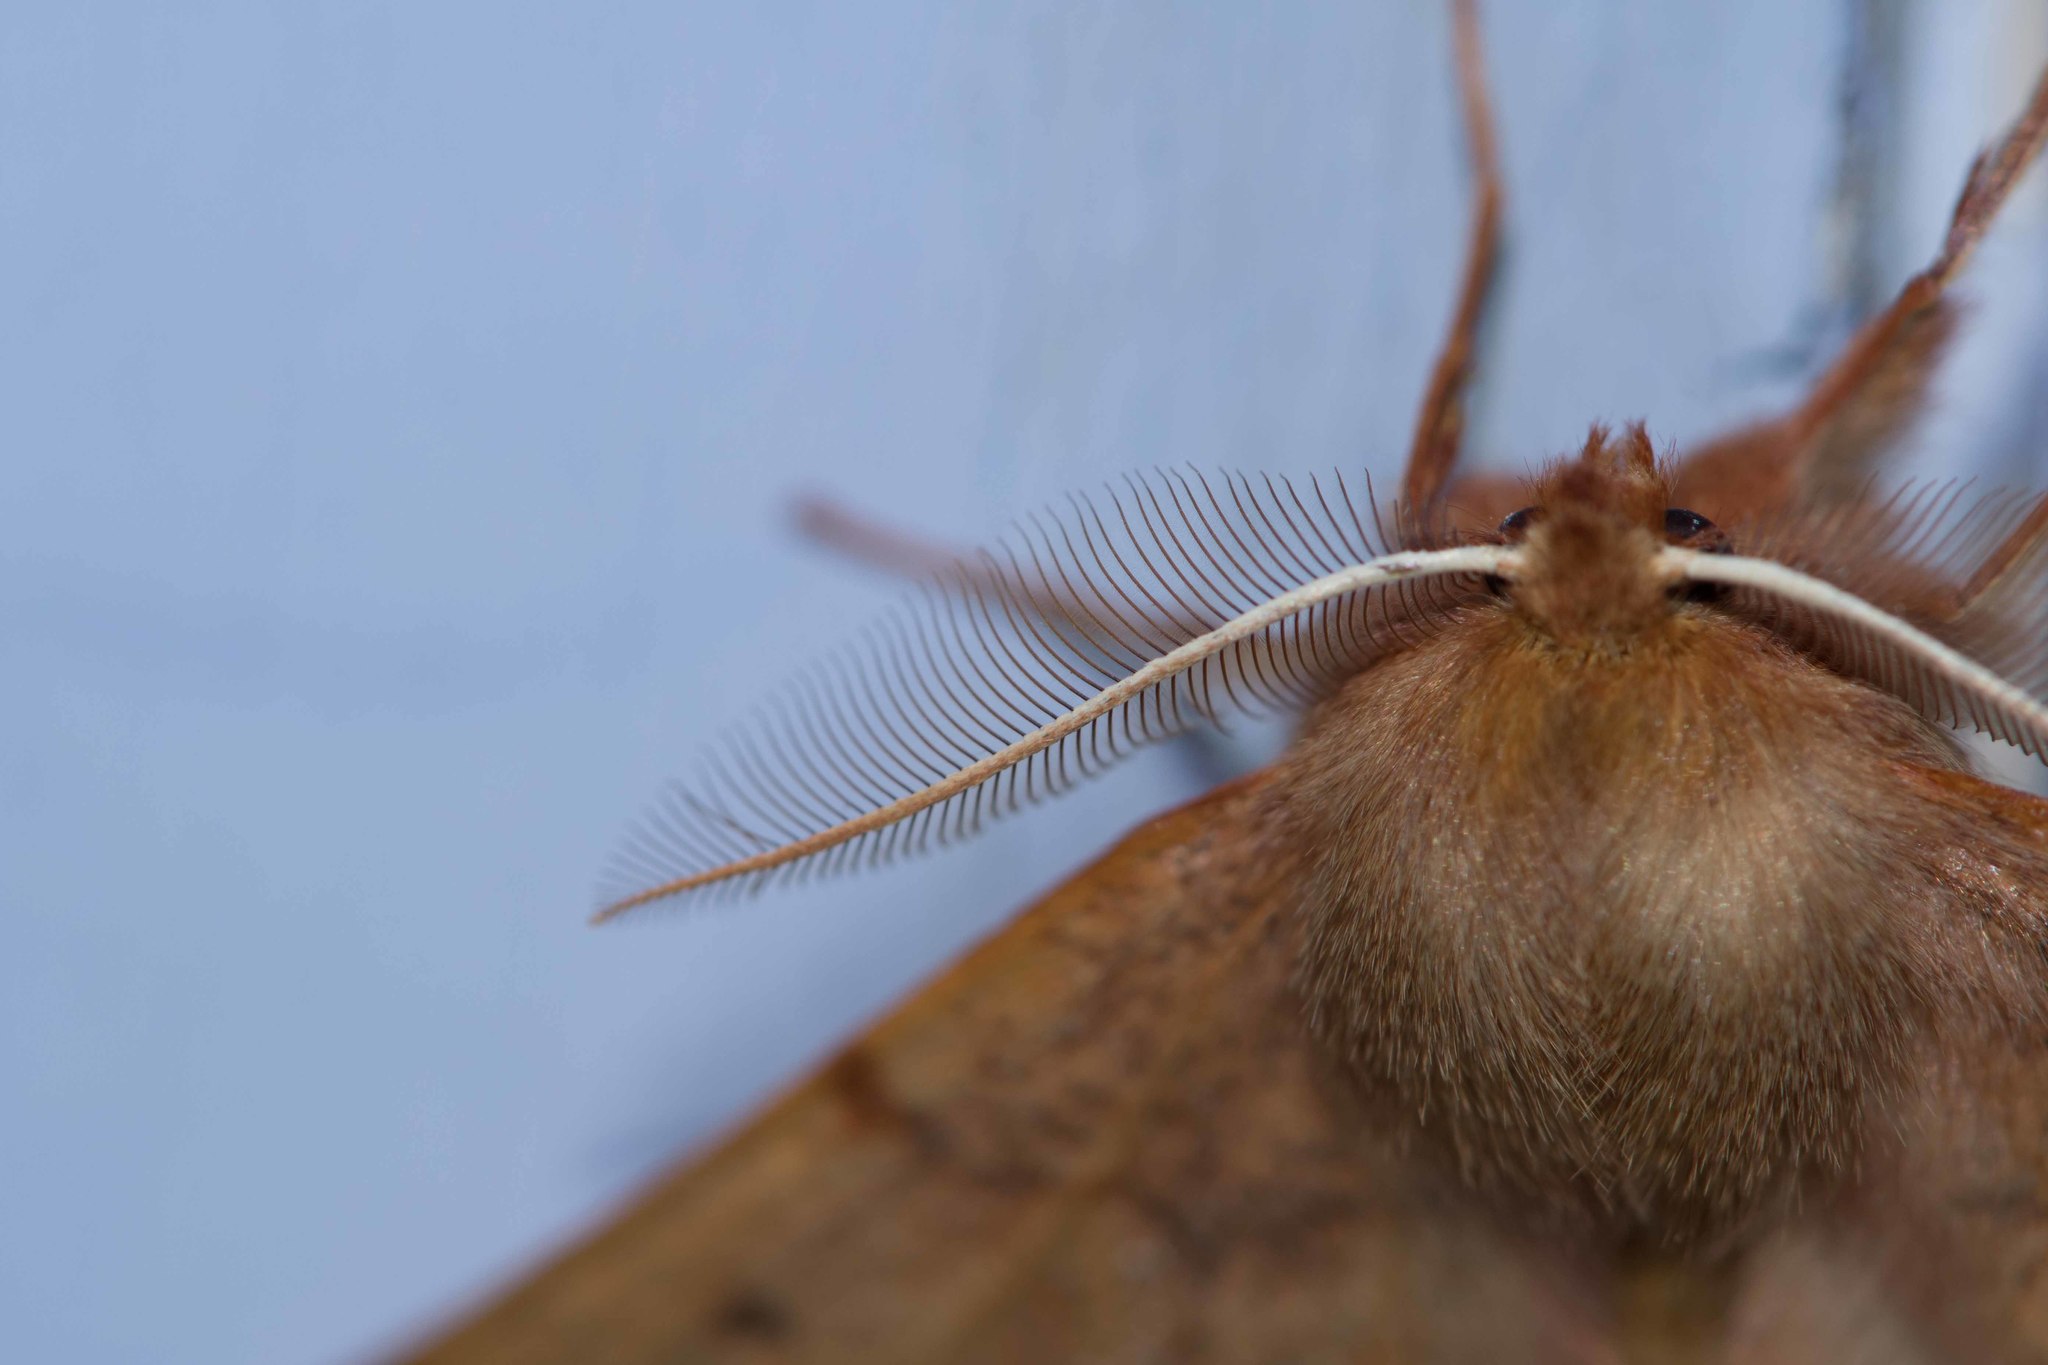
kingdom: Animalia
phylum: Arthropoda
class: Insecta
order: Lepidoptera
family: Geometridae
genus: Colotois
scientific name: Colotois pennaria
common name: Feathered thorn
